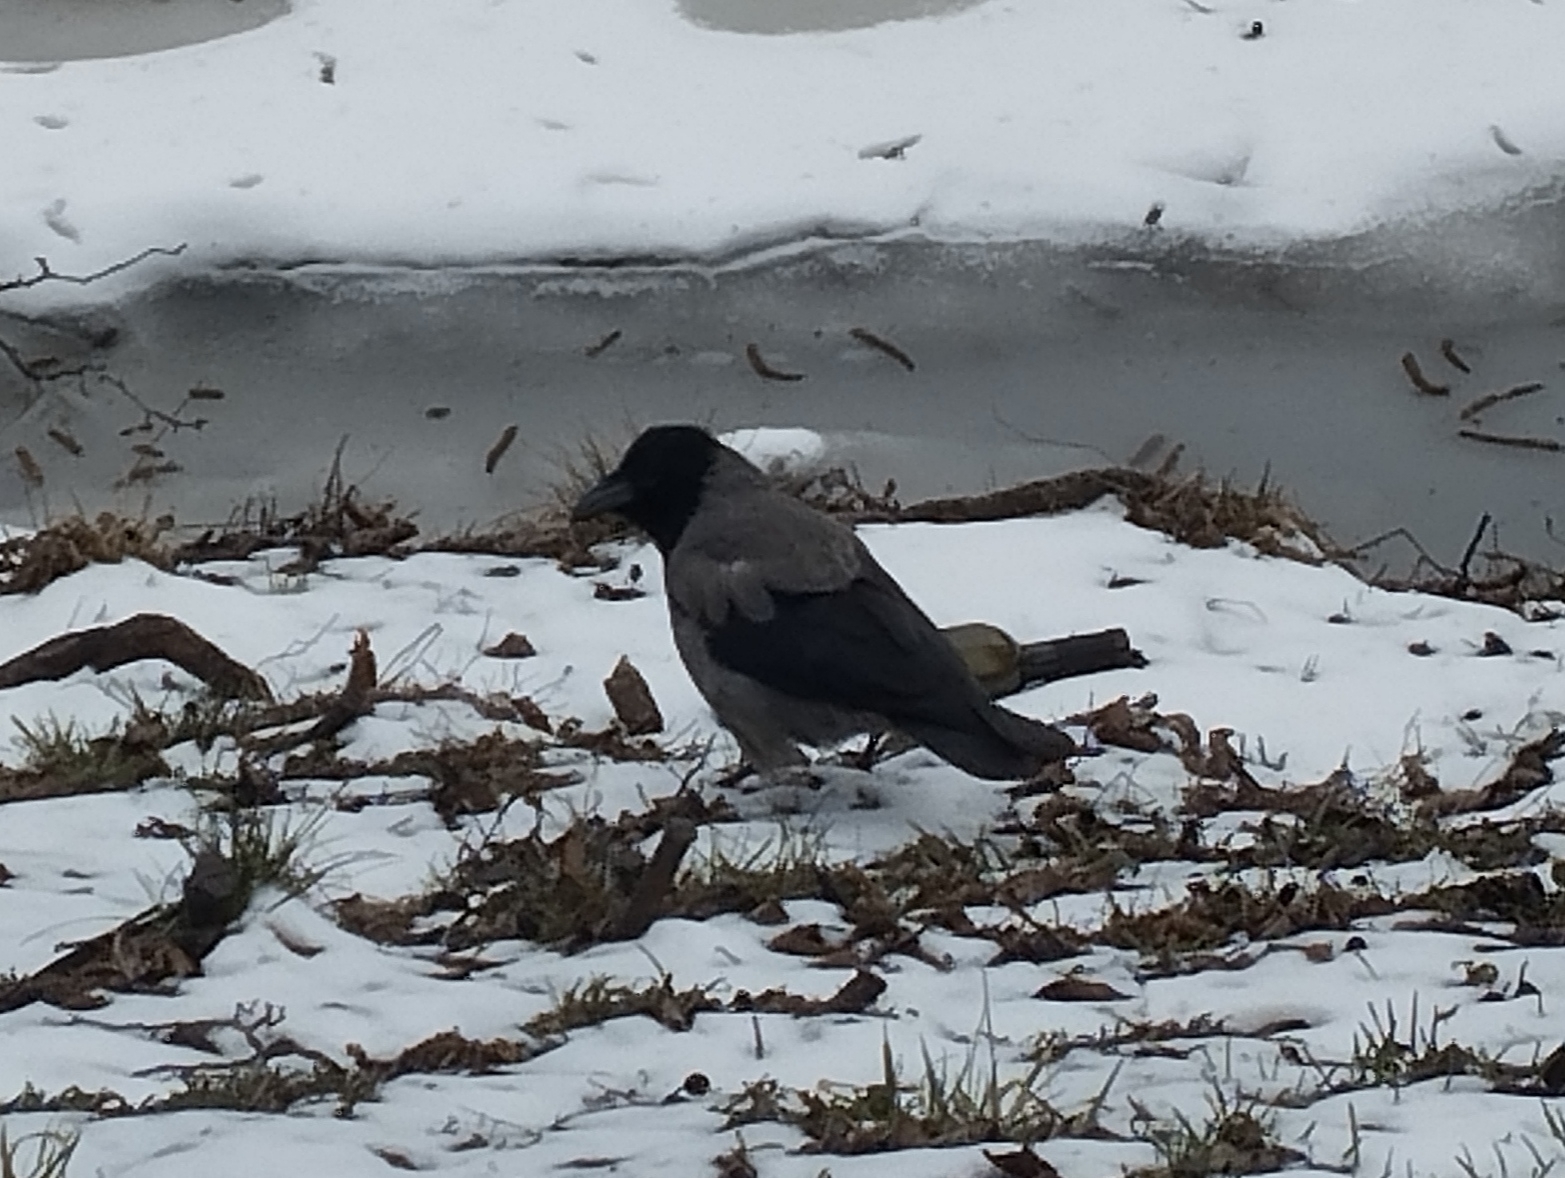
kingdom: Animalia
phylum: Chordata
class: Aves
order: Passeriformes
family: Corvidae
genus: Corvus
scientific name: Corvus cornix
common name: Hooded crow
